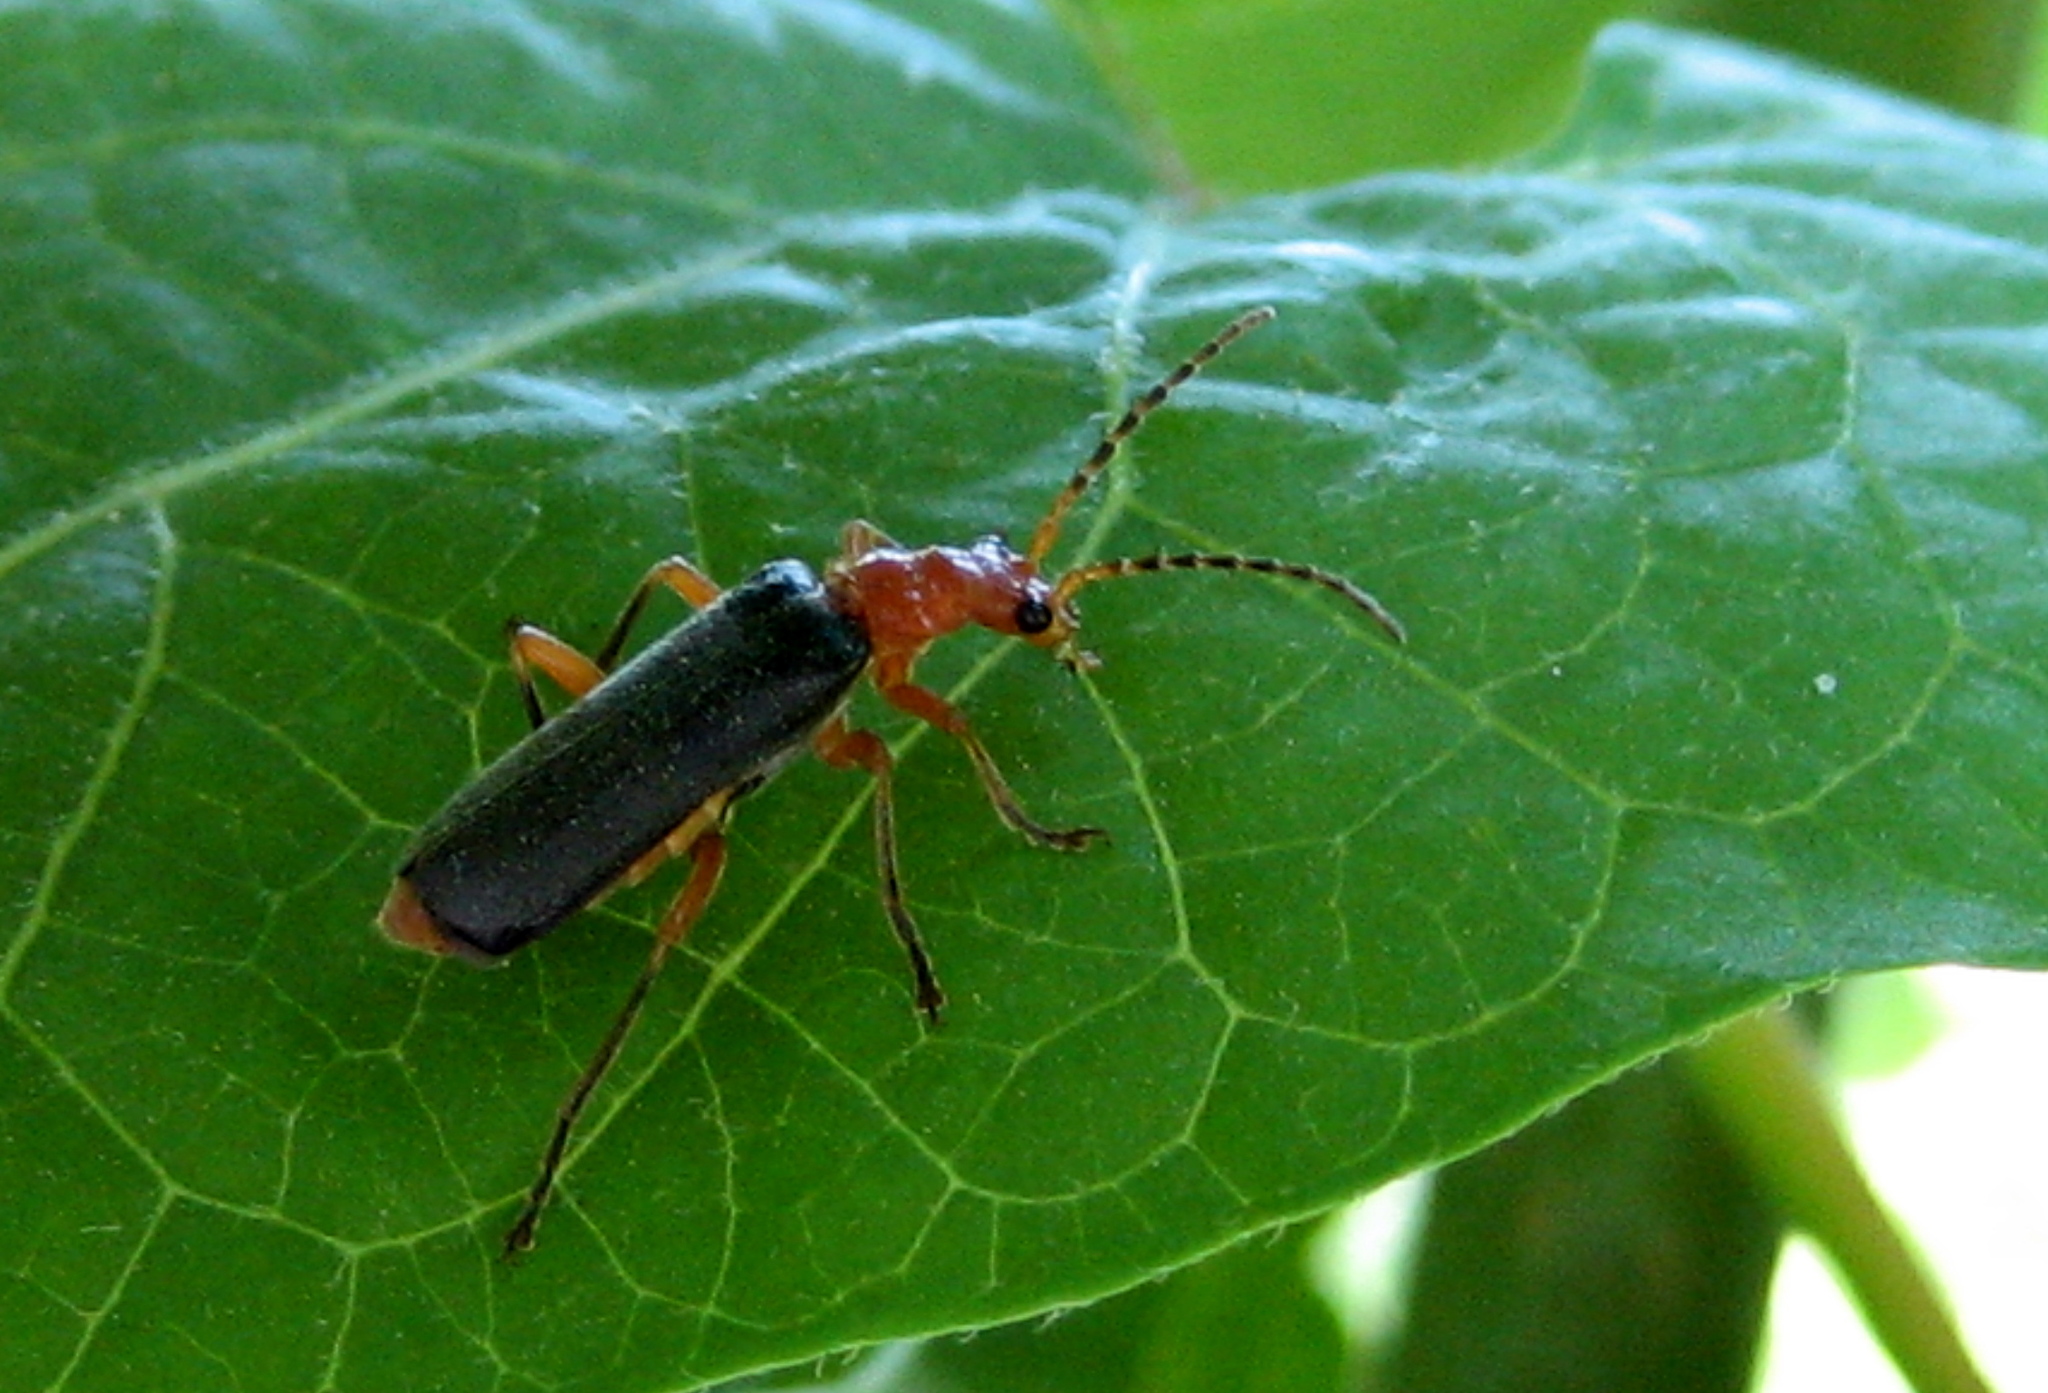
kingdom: Animalia
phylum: Arthropoda
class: Insecta
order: Coleoptera
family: Cantharidae
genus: Podabrus
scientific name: Podabrus tomentosus
